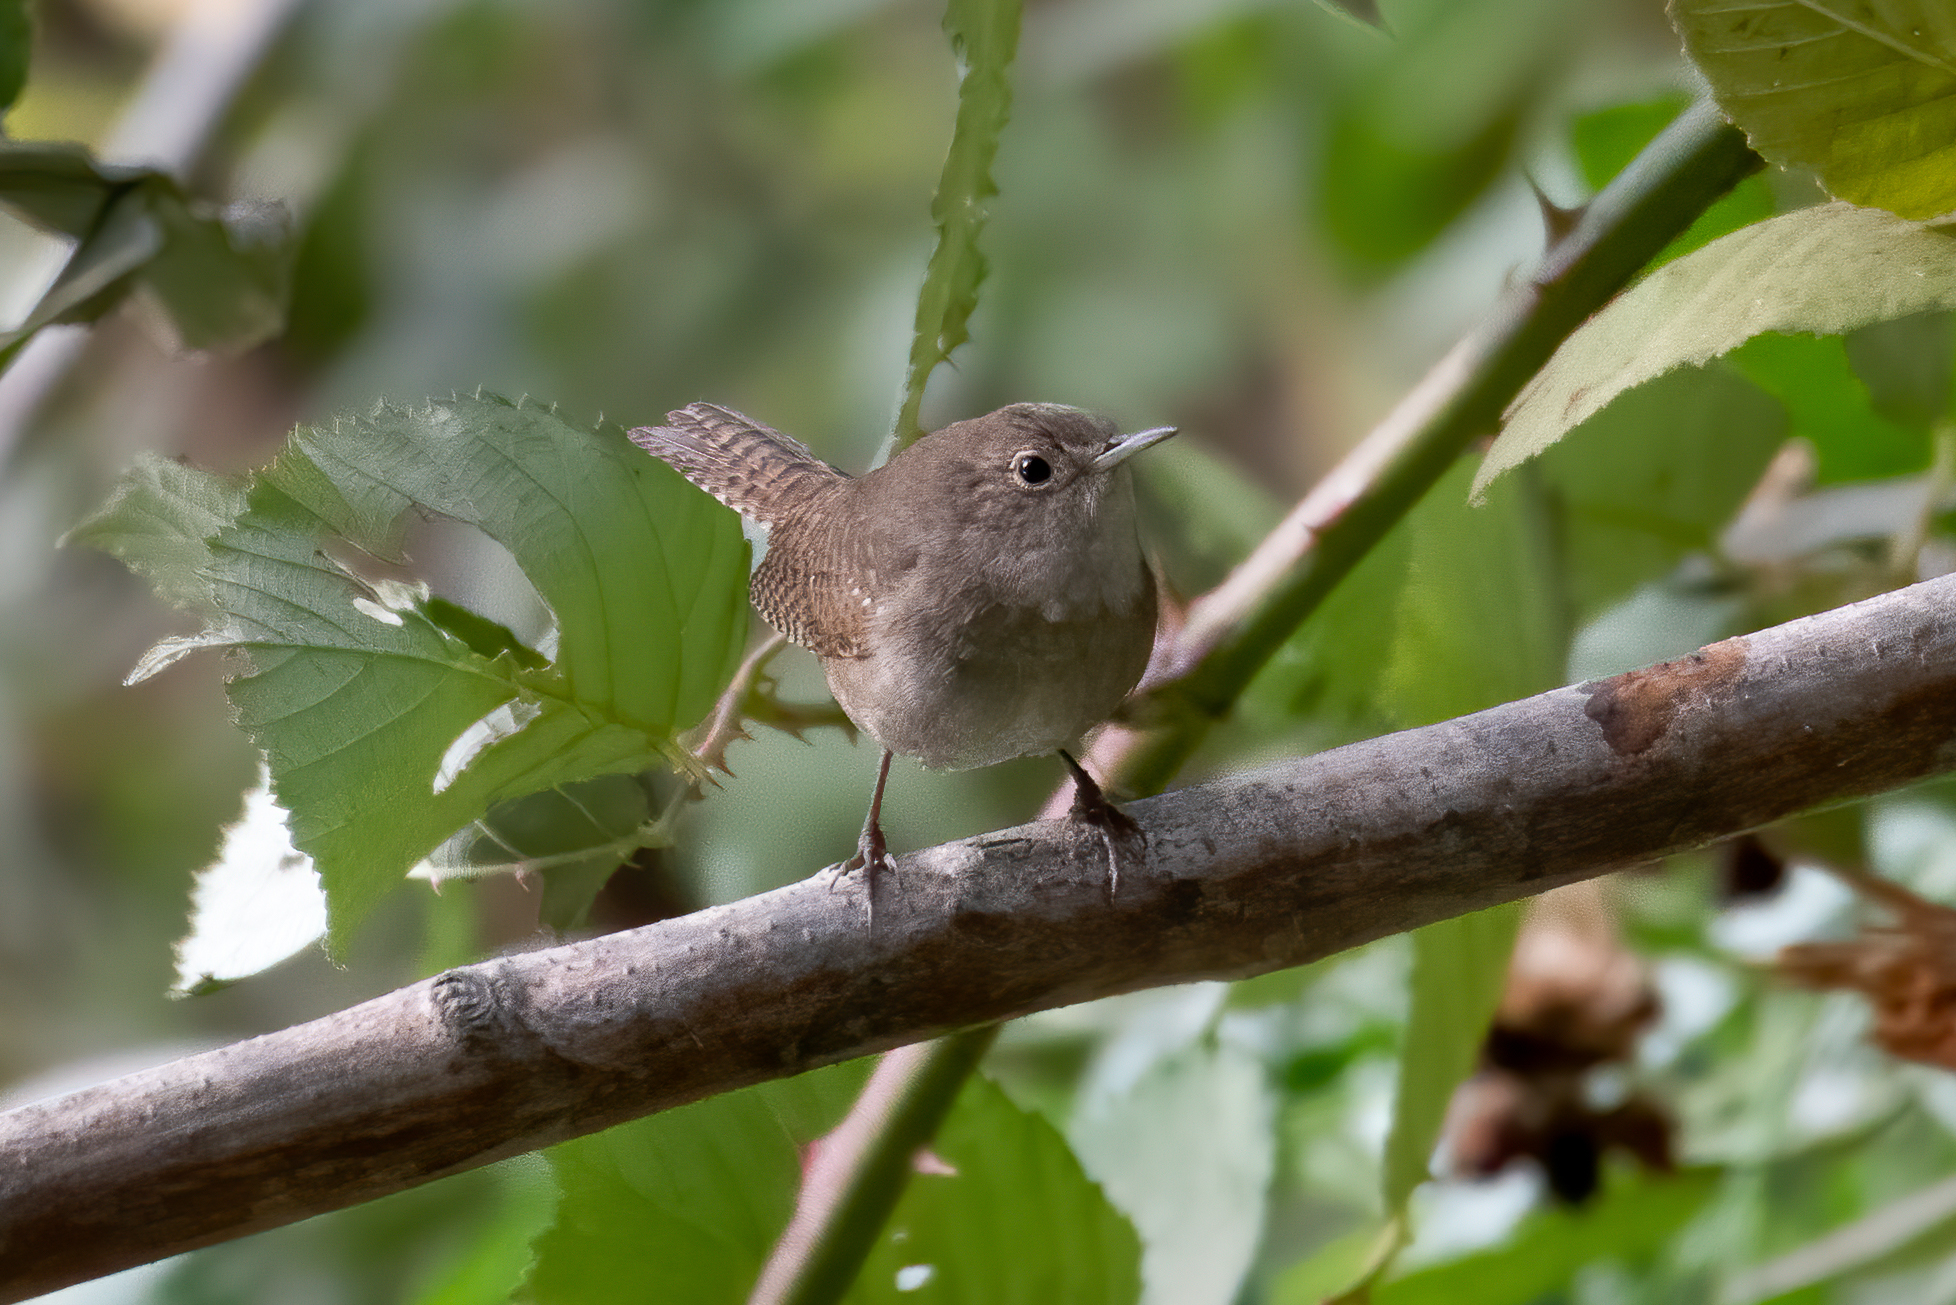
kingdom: Animalia
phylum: Chordata
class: Aves
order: Passeriformes
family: Troglodytidae
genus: Troglodytes
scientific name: Troglodytes aedon
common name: House wren
